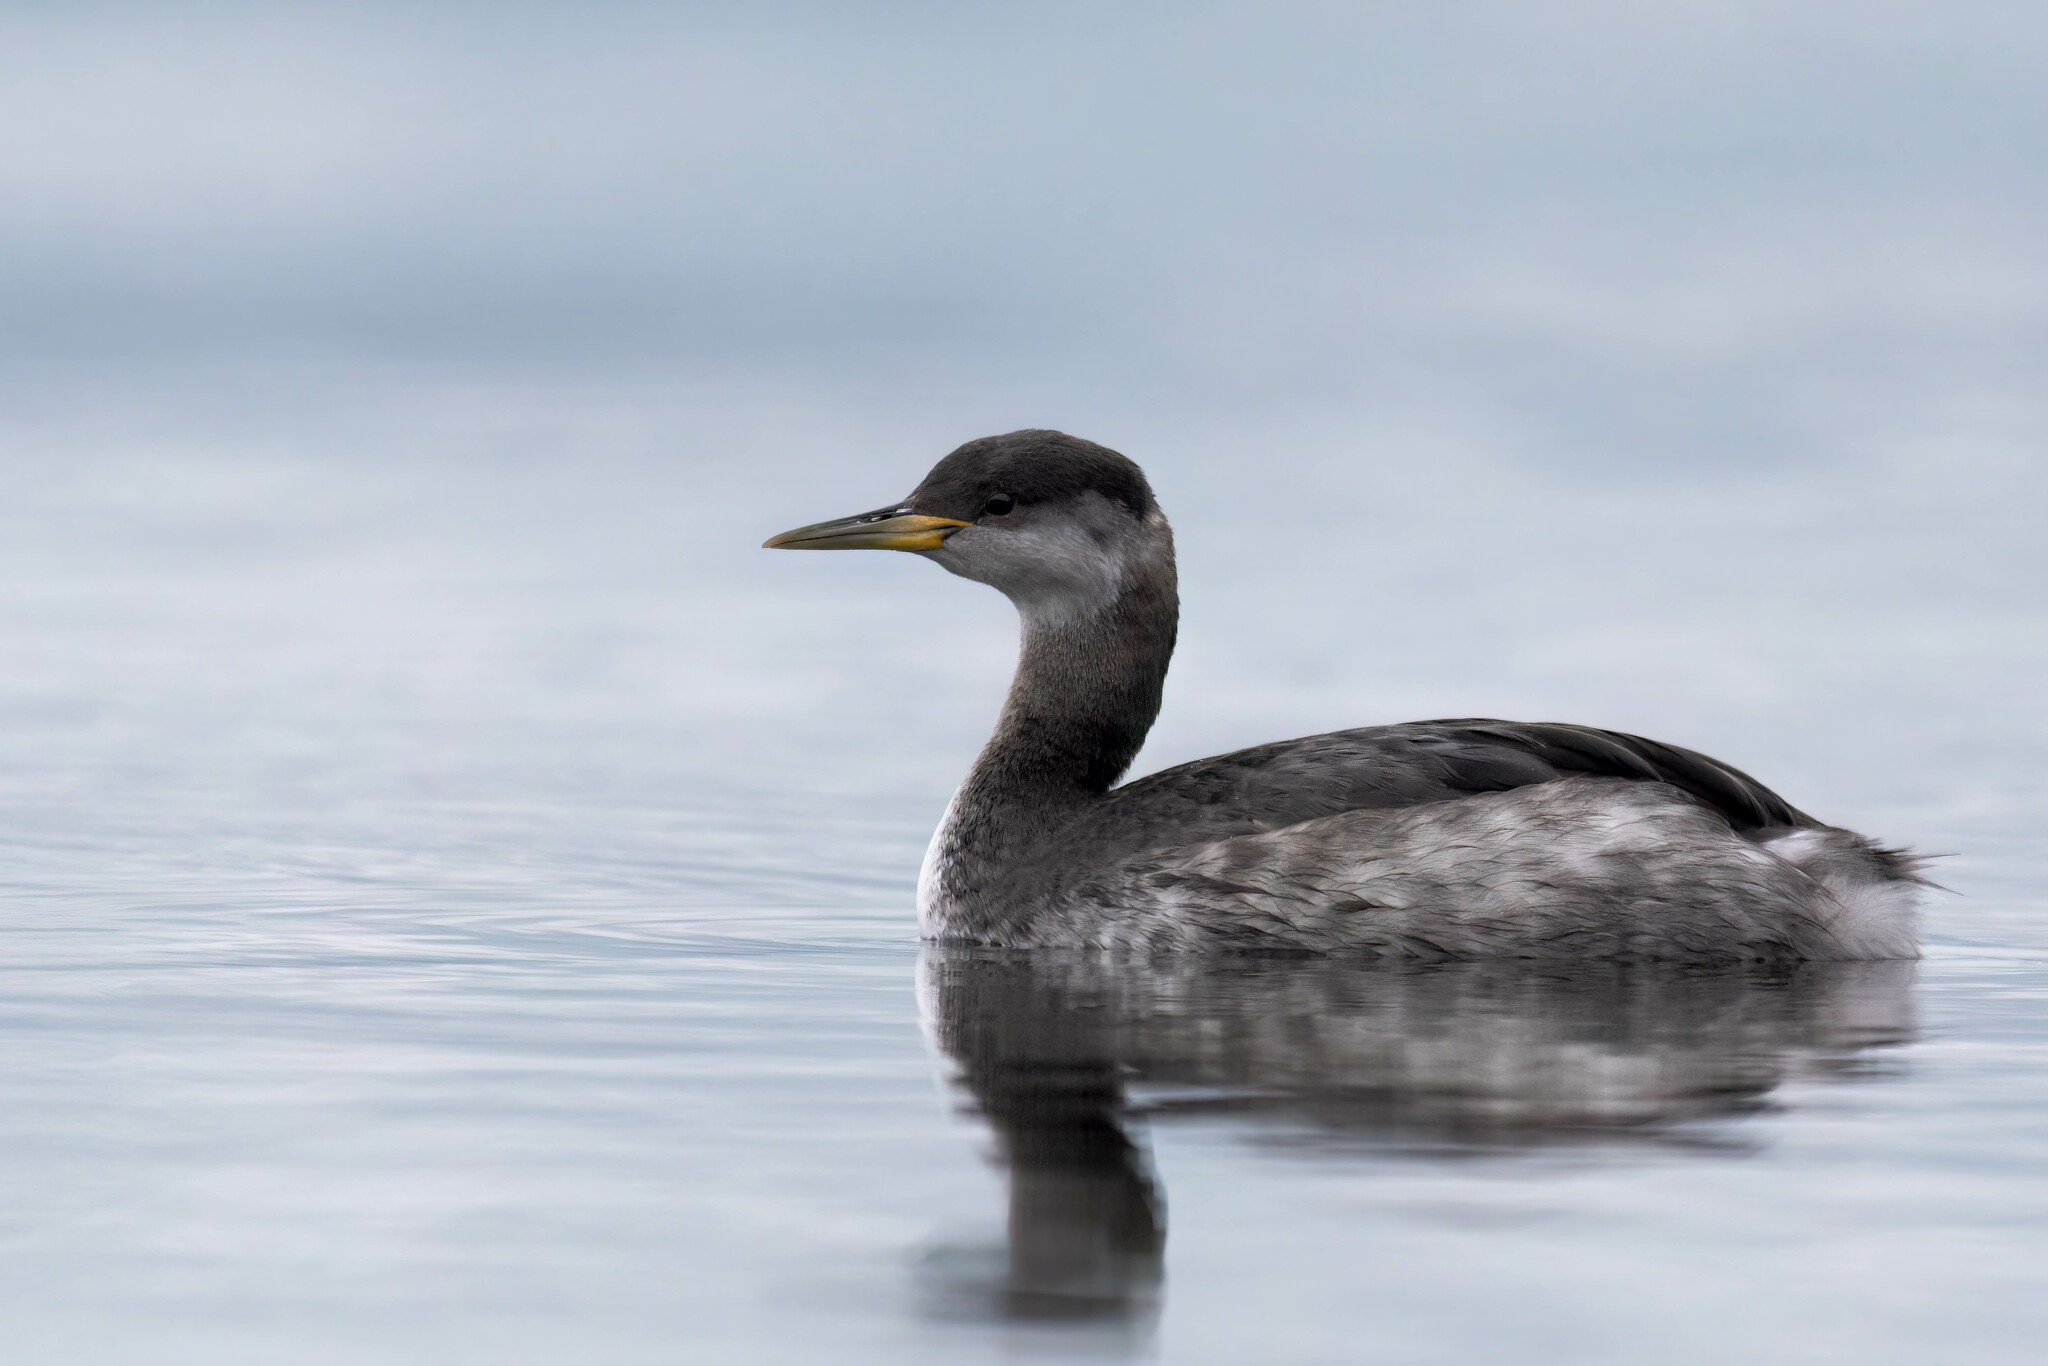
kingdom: Animalia
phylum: Chordata
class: Aves
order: Podicipediformes
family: Podicipedidae
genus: Podiceps
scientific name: Podiceps grisegena
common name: Red-necked grebe
